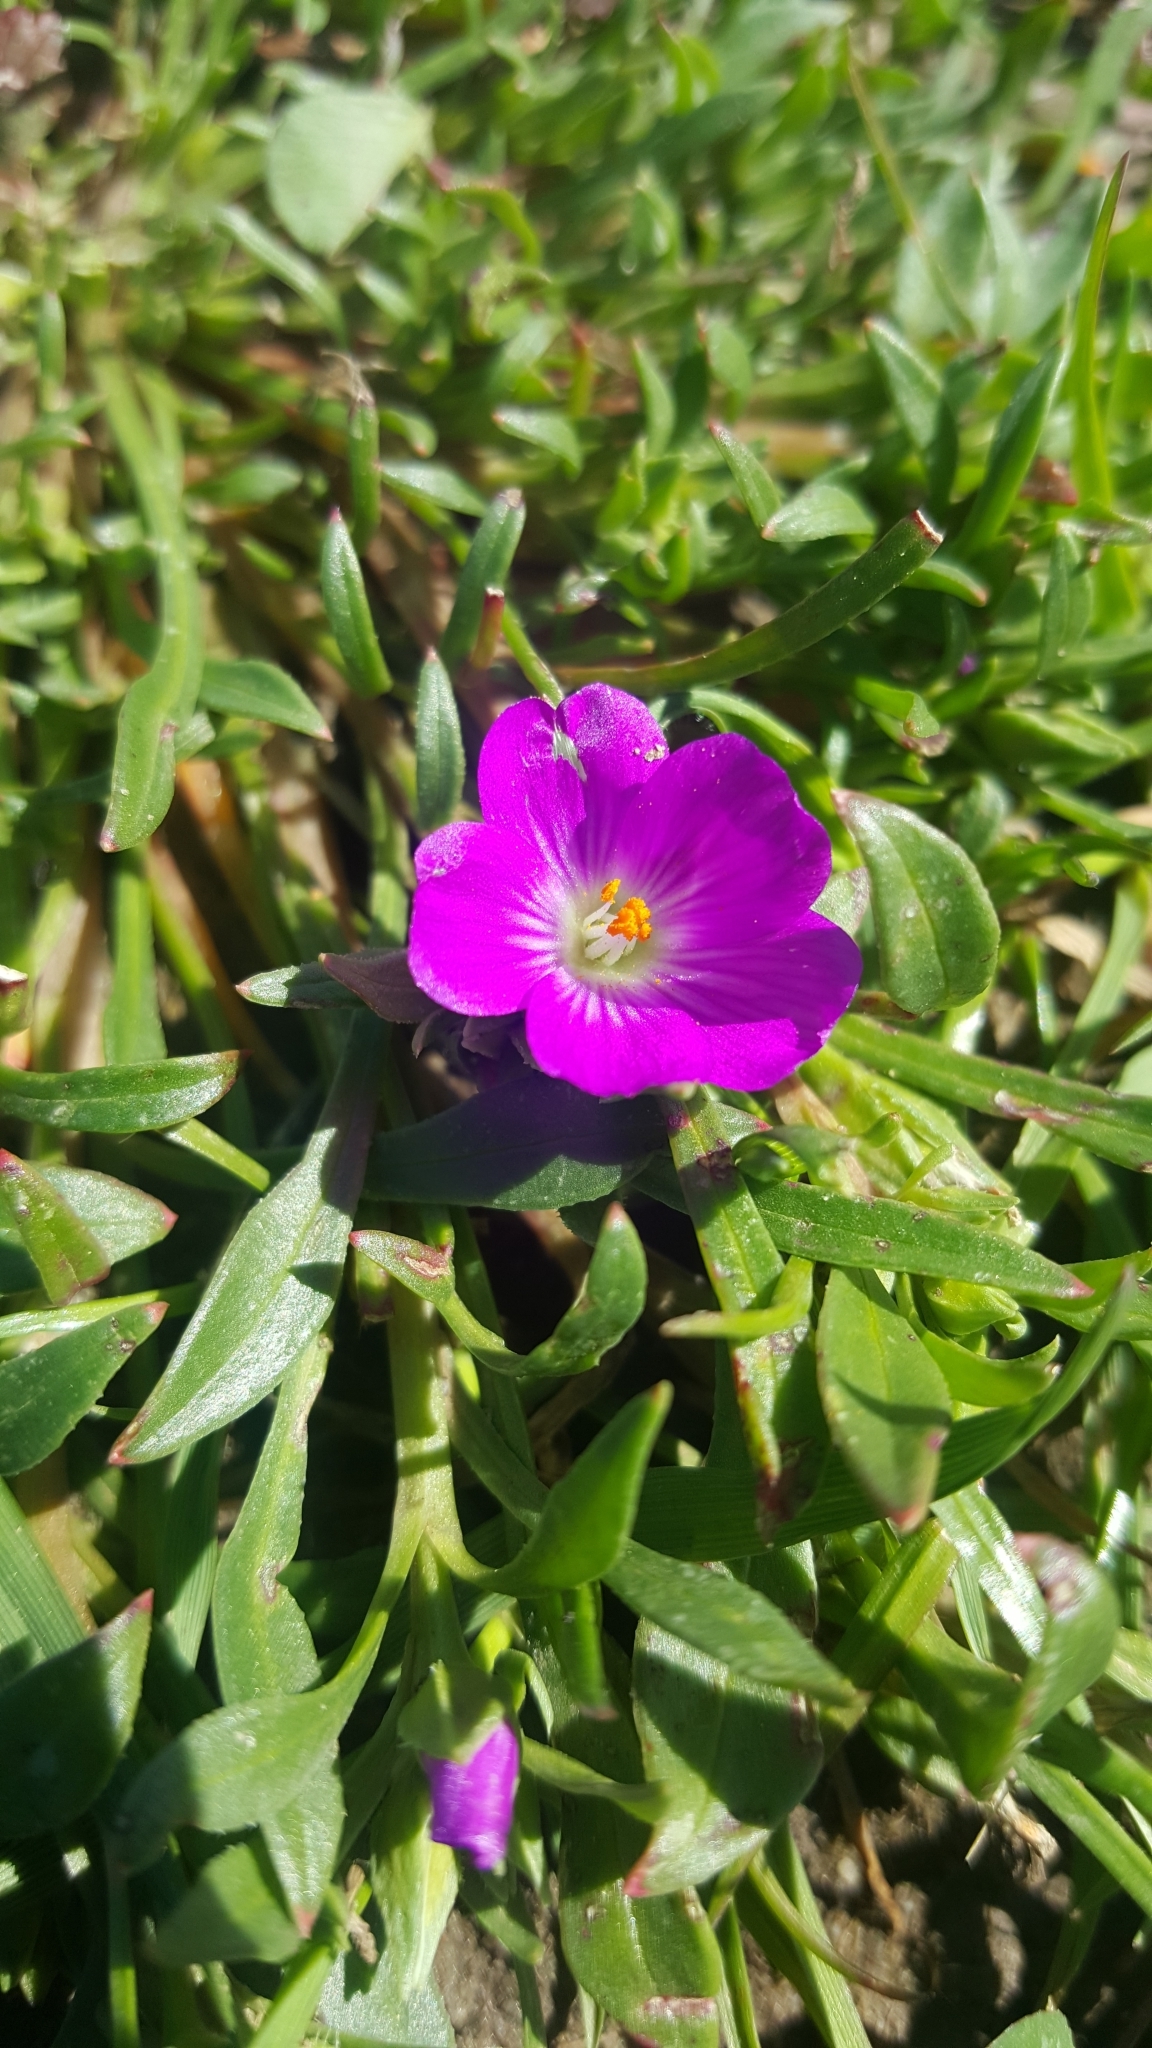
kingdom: Plantae
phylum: Tracheophyta
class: Magnoliopsida
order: Caryophyllales
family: Montiaceae
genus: Calandrinia
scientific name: Calandrinia menziesii
